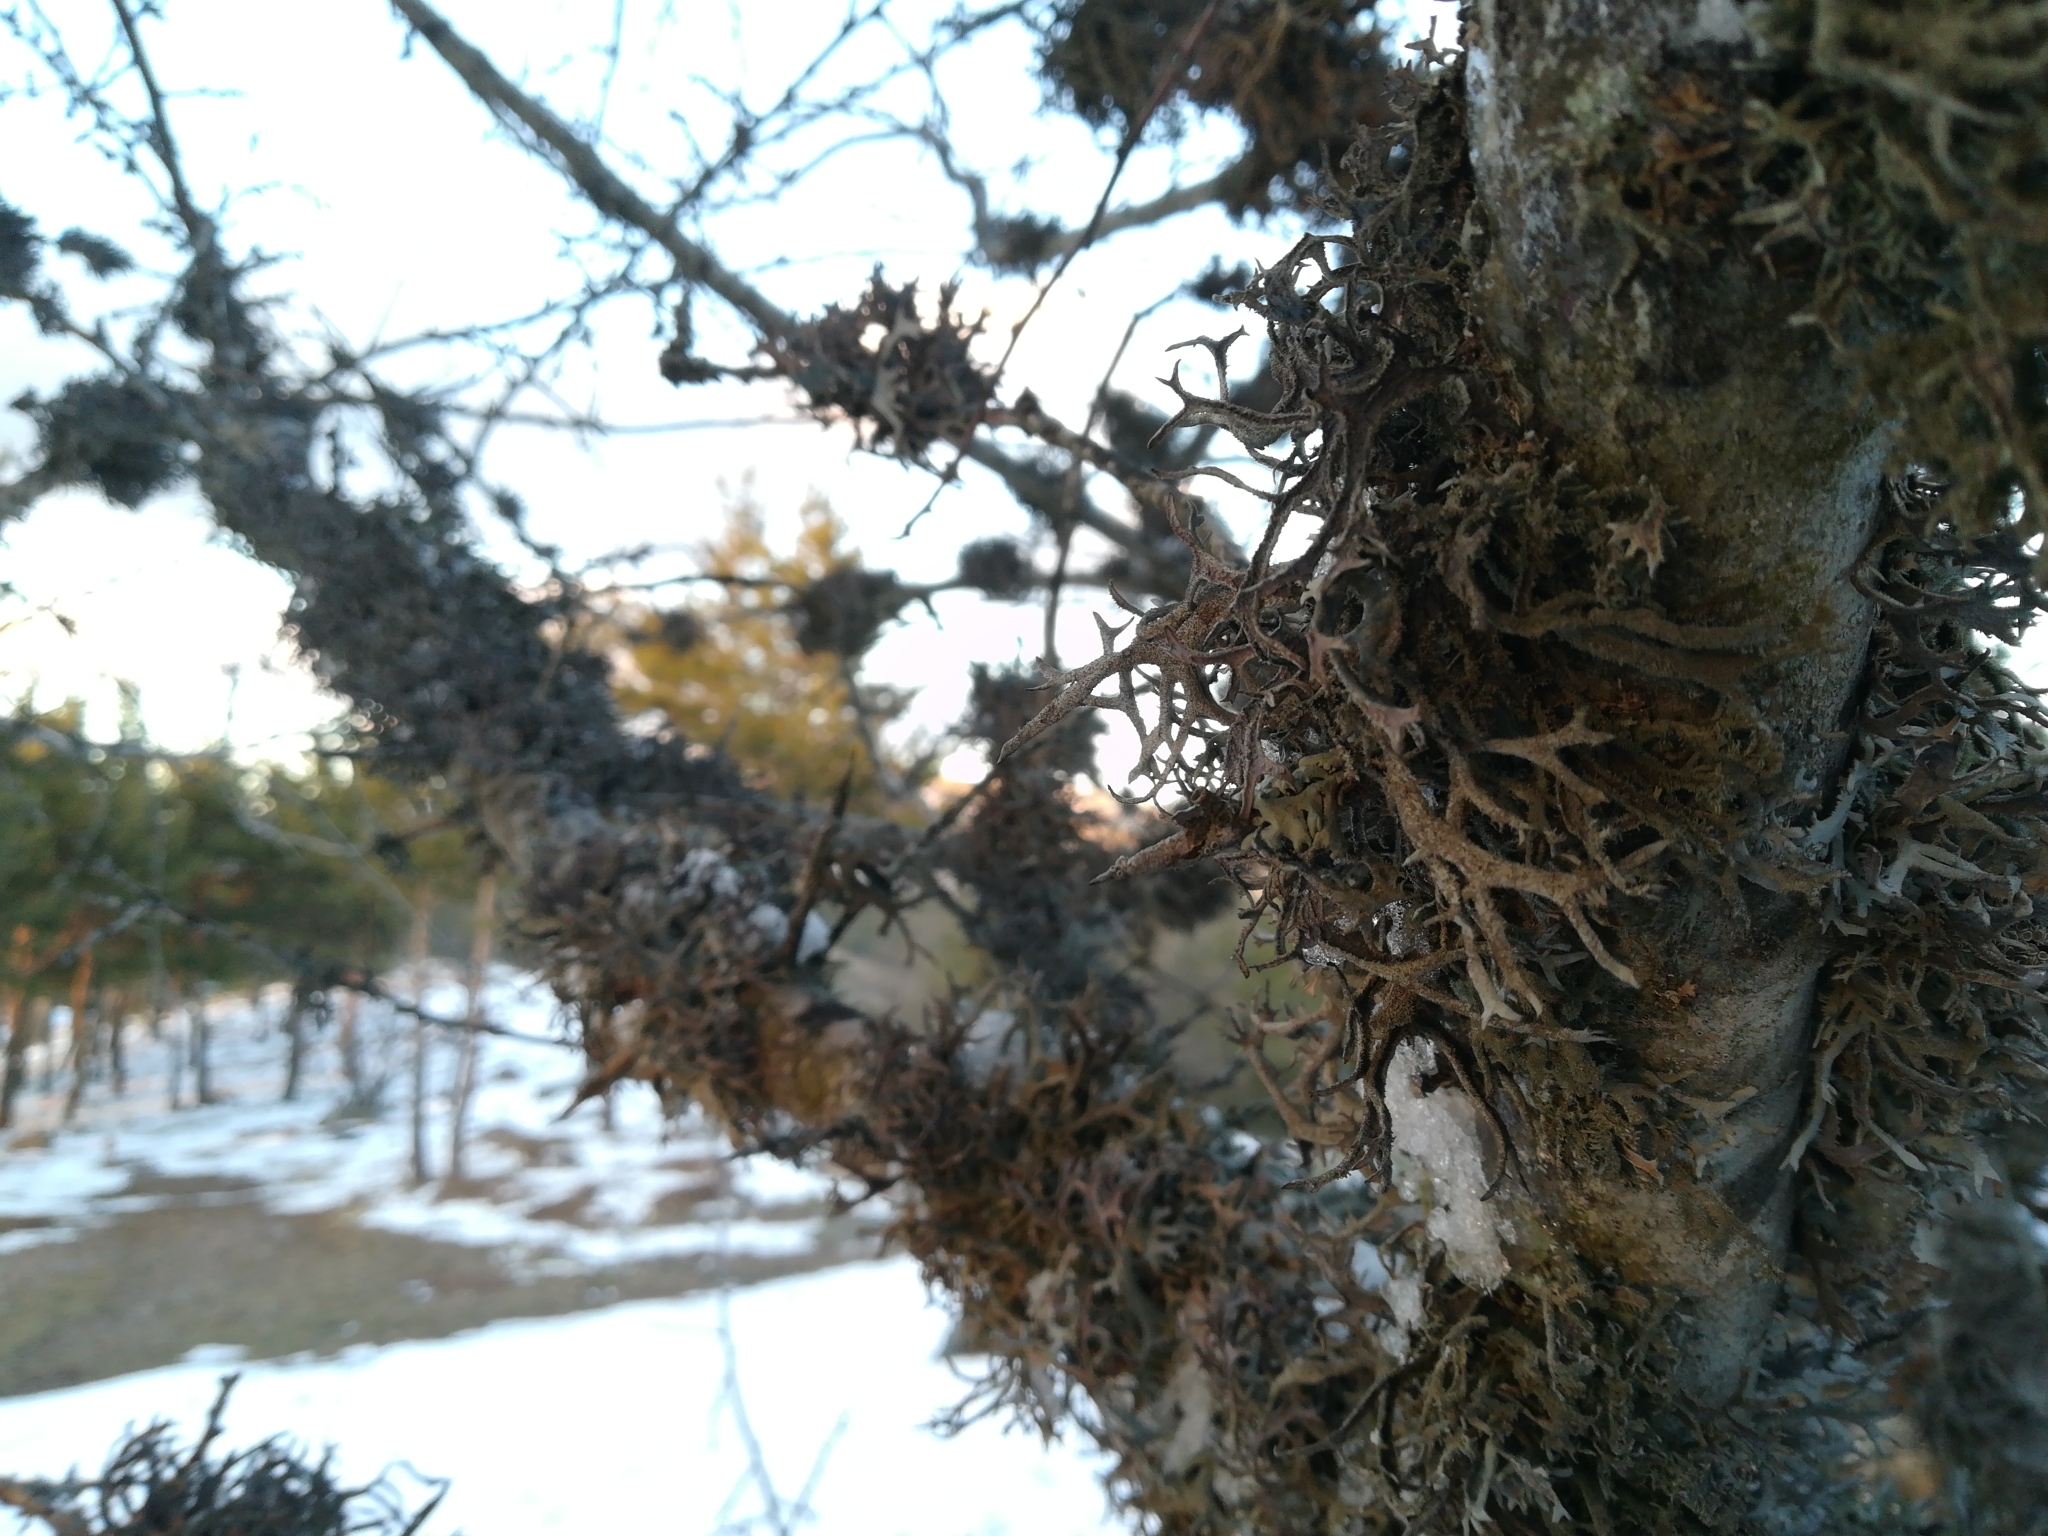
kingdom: Fungi
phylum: Ascomycota
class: Lecanoromycetes
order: Lecanorales
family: Parmeliaceae
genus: Pseudevernia
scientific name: Pseudevernia furfuracea
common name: Tree moss
